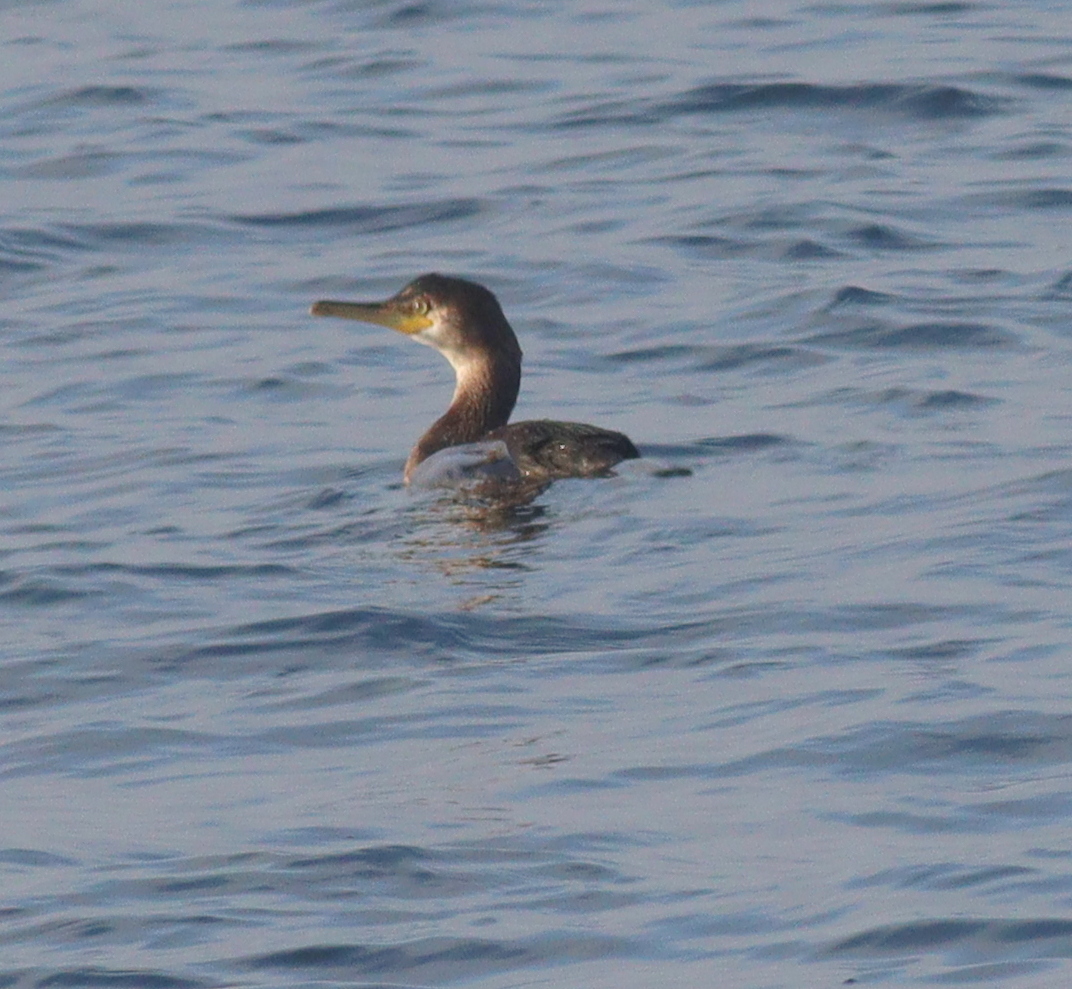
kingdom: Animalia
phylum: Chordata
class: Aves
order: Suliformes
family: Phalacrocoracidae
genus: Phalacrocorax
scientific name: Phalacrocorax aristotelis
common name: European shag
